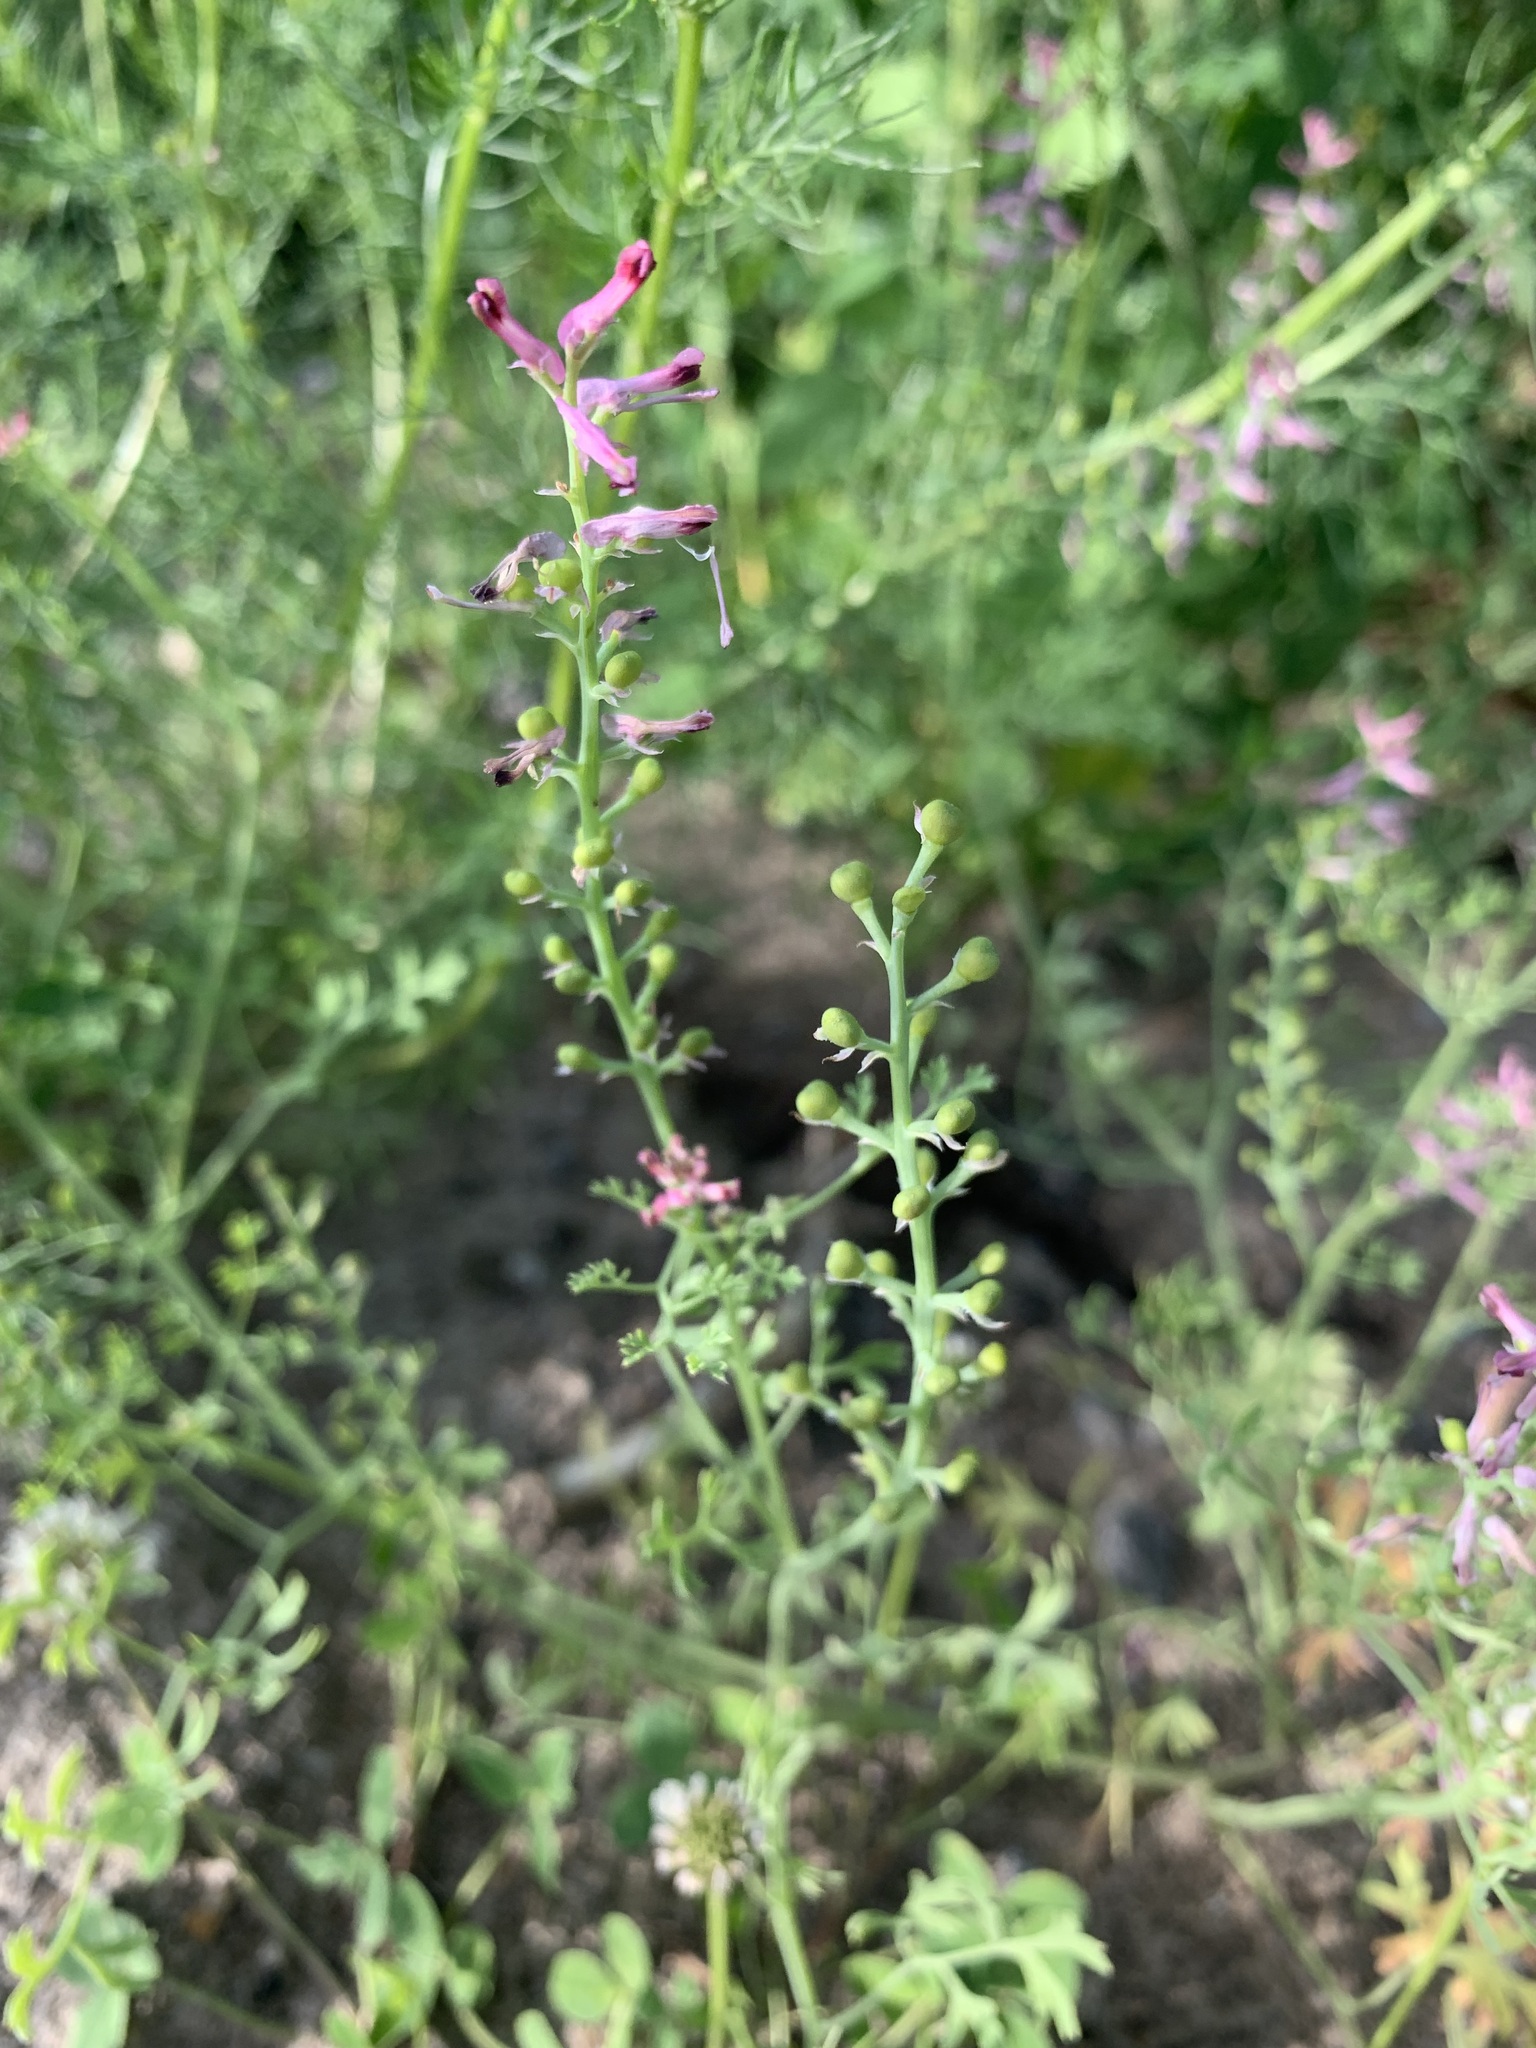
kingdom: Plantae
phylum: Tracheophyta
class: Magnoliopsida
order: Ranunculales
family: Papaveraceae
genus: Fumaria
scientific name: Fumaria officinalis
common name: Common fumitory
